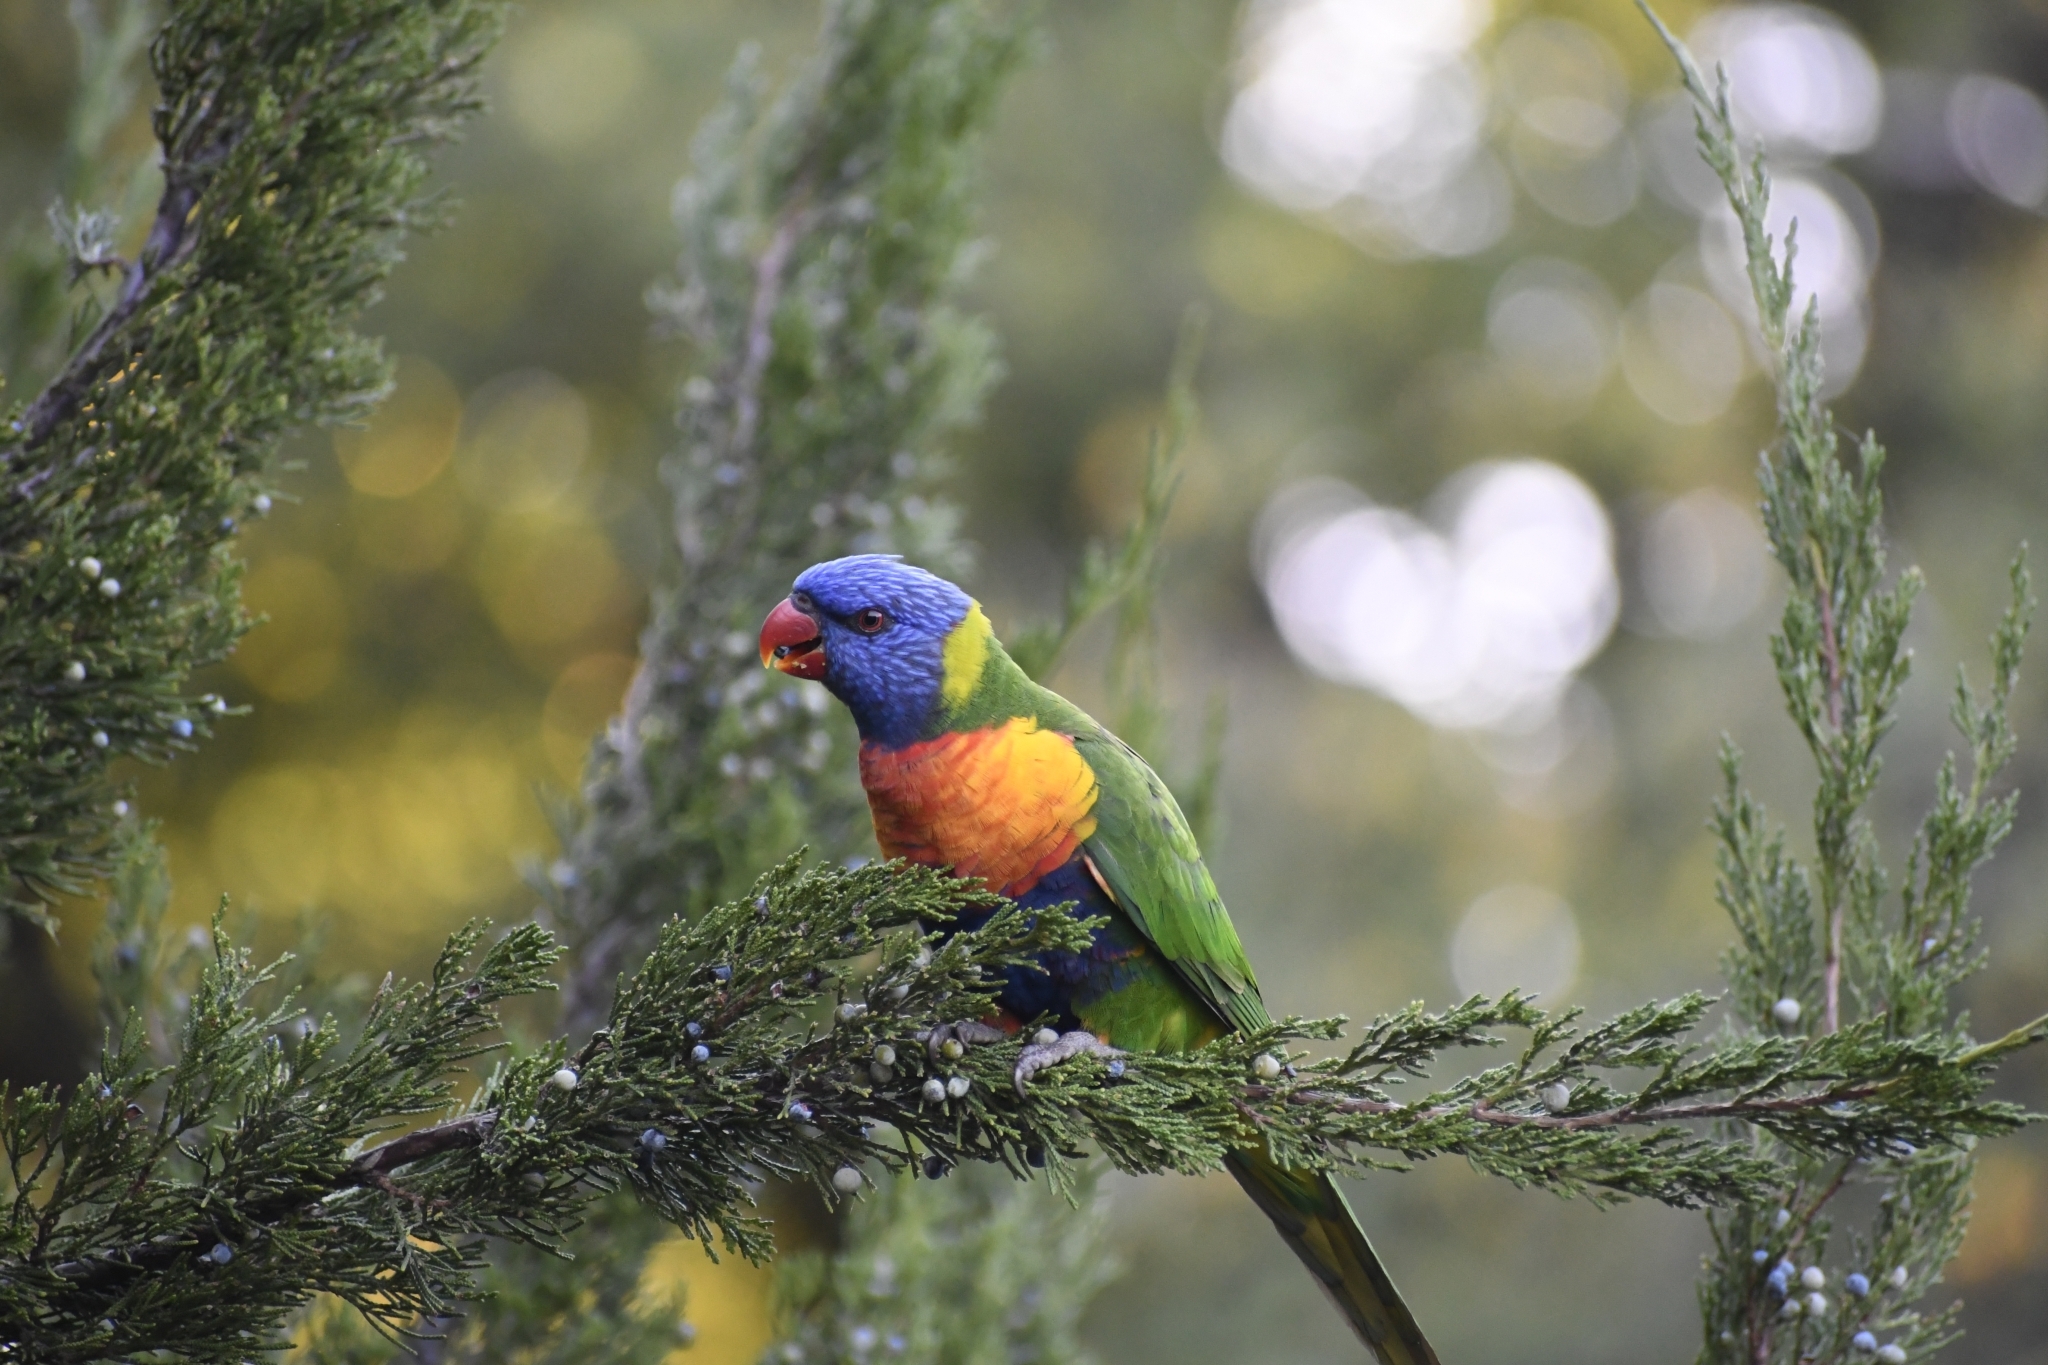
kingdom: Animalia
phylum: Chordata
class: Aves
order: Psittaciformes
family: Psittacidae
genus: Trichoglossus
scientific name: Trichoglossus haematodus
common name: Coconut lorikeet
